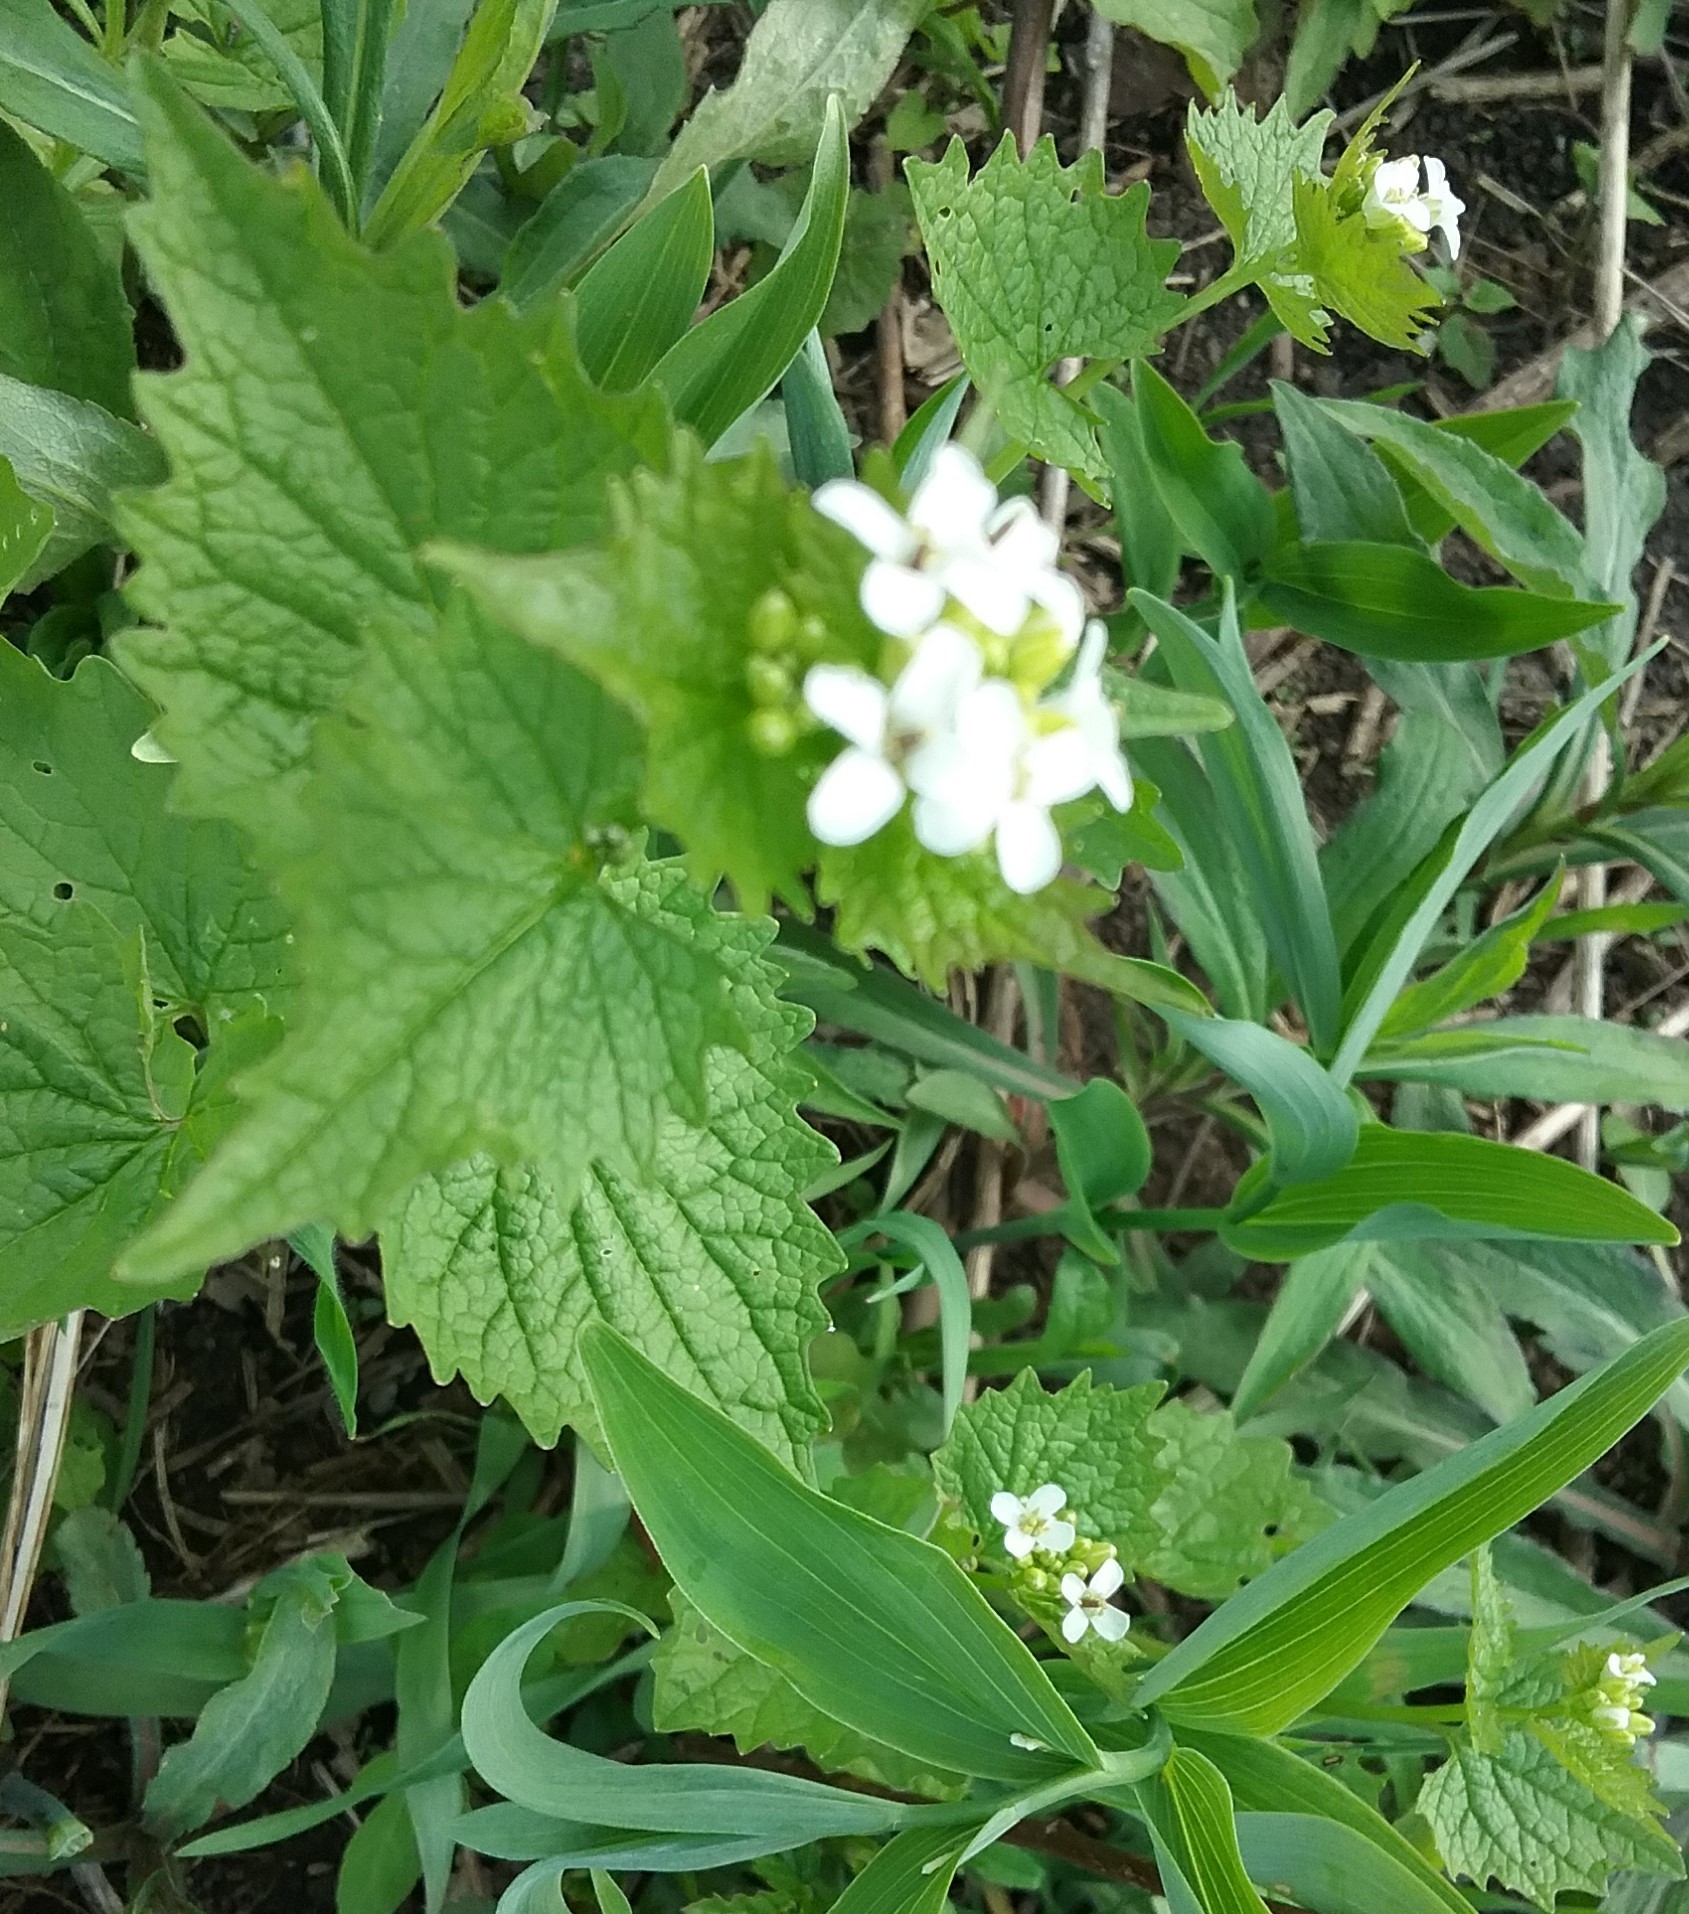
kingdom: Plantae
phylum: Tracheophyta
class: Magnoliopsida
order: Brassicales
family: Brassicaceae
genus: Alliaria
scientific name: Alliaria petiolata
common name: Garlic mustard
